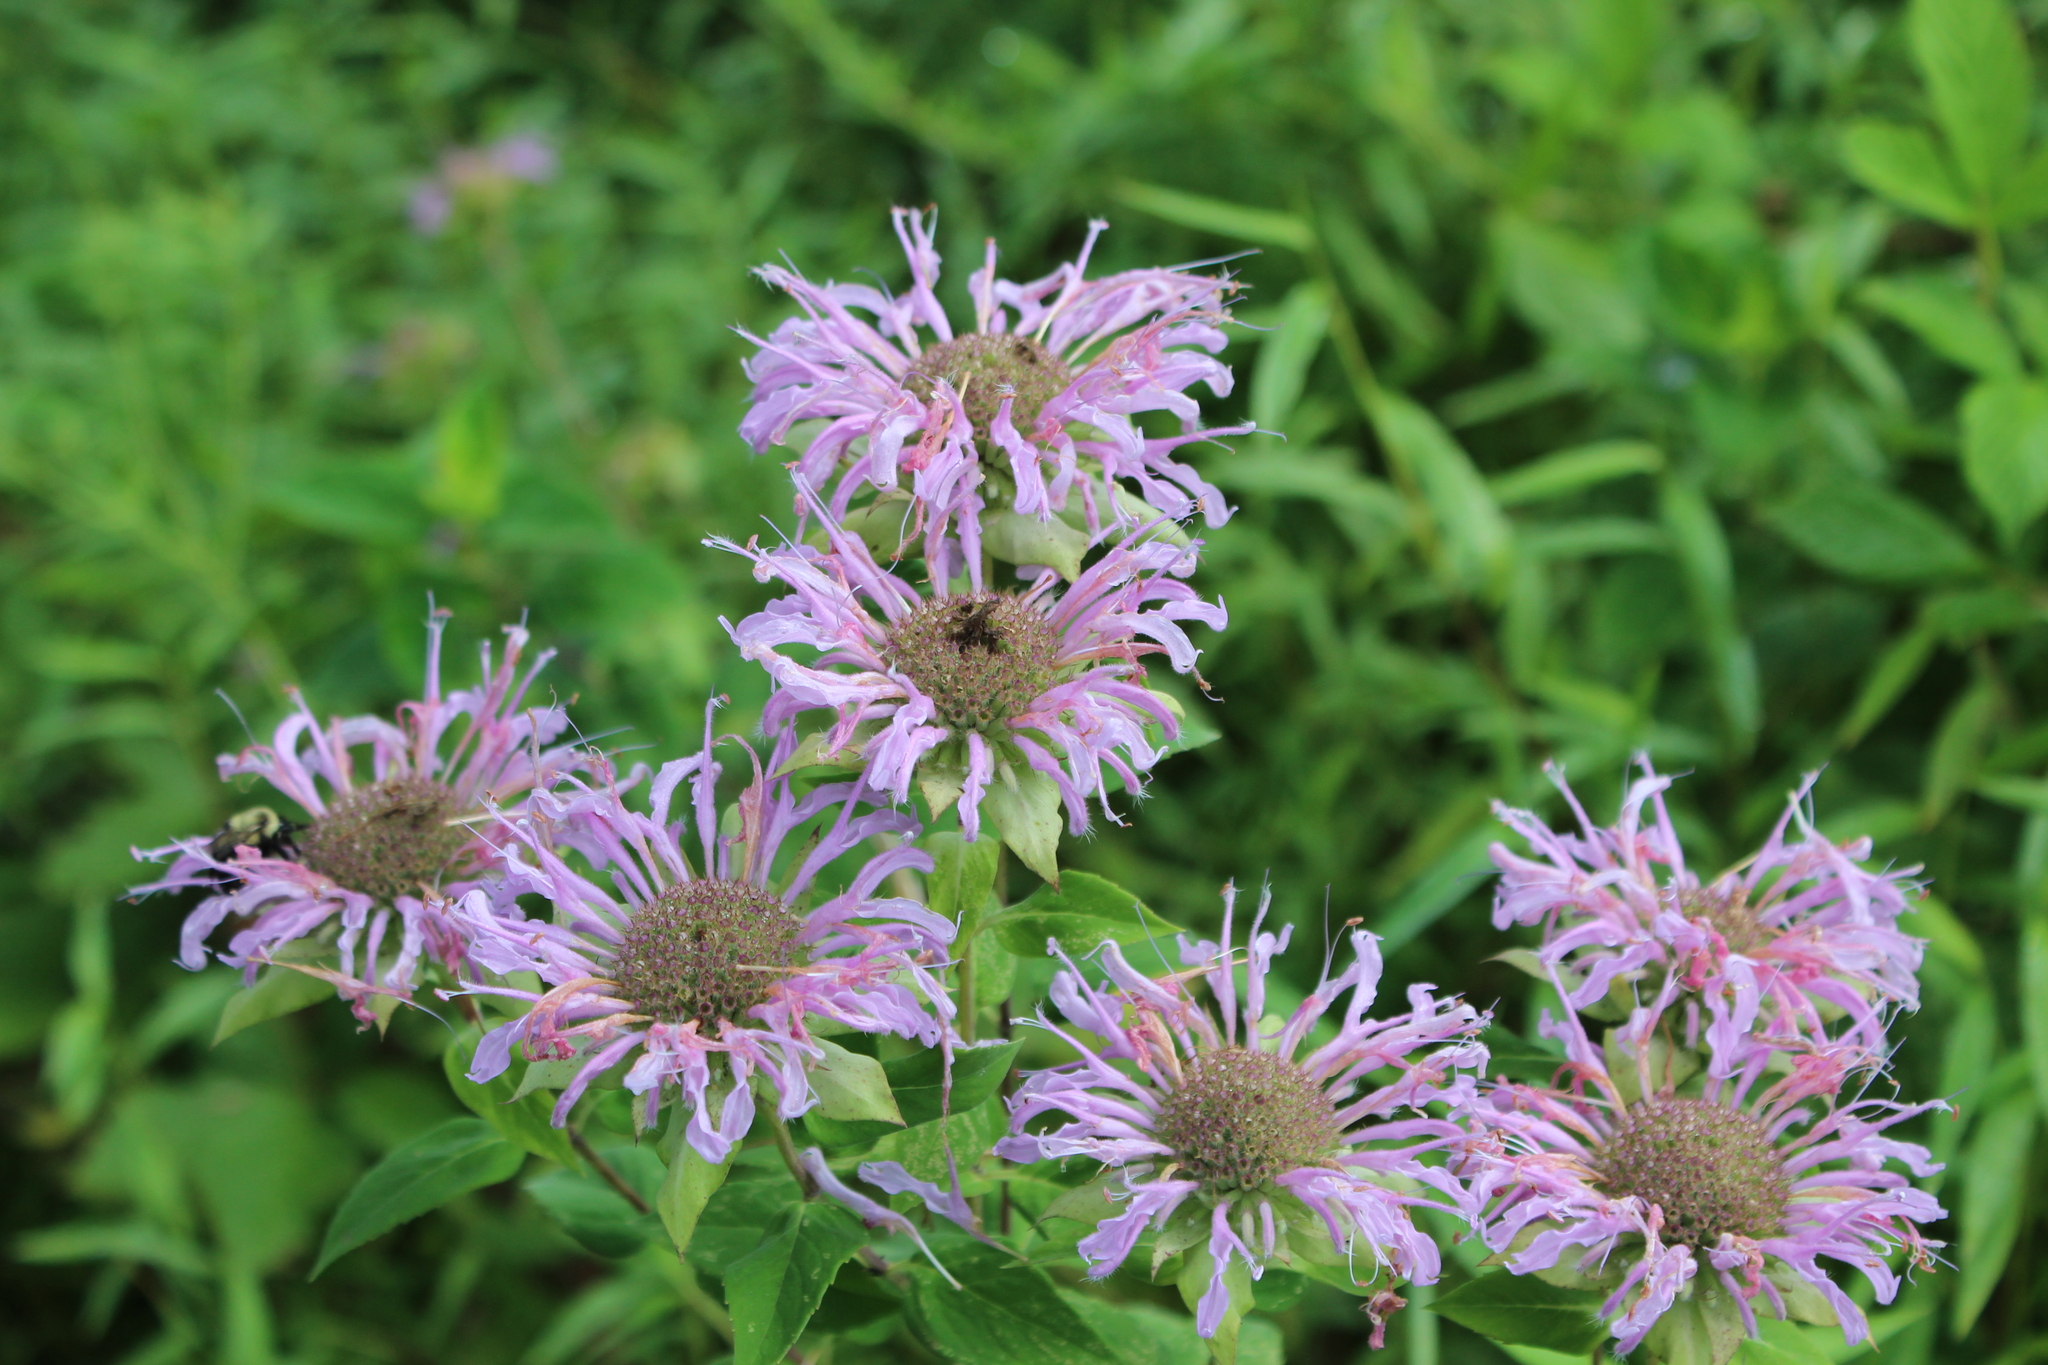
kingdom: Plantae
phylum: Tracheophyta
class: Magnoliopsida
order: Lamiales
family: Lamiaceae
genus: Monarda
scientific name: Monarda fistulosa
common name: Purple beebalm
